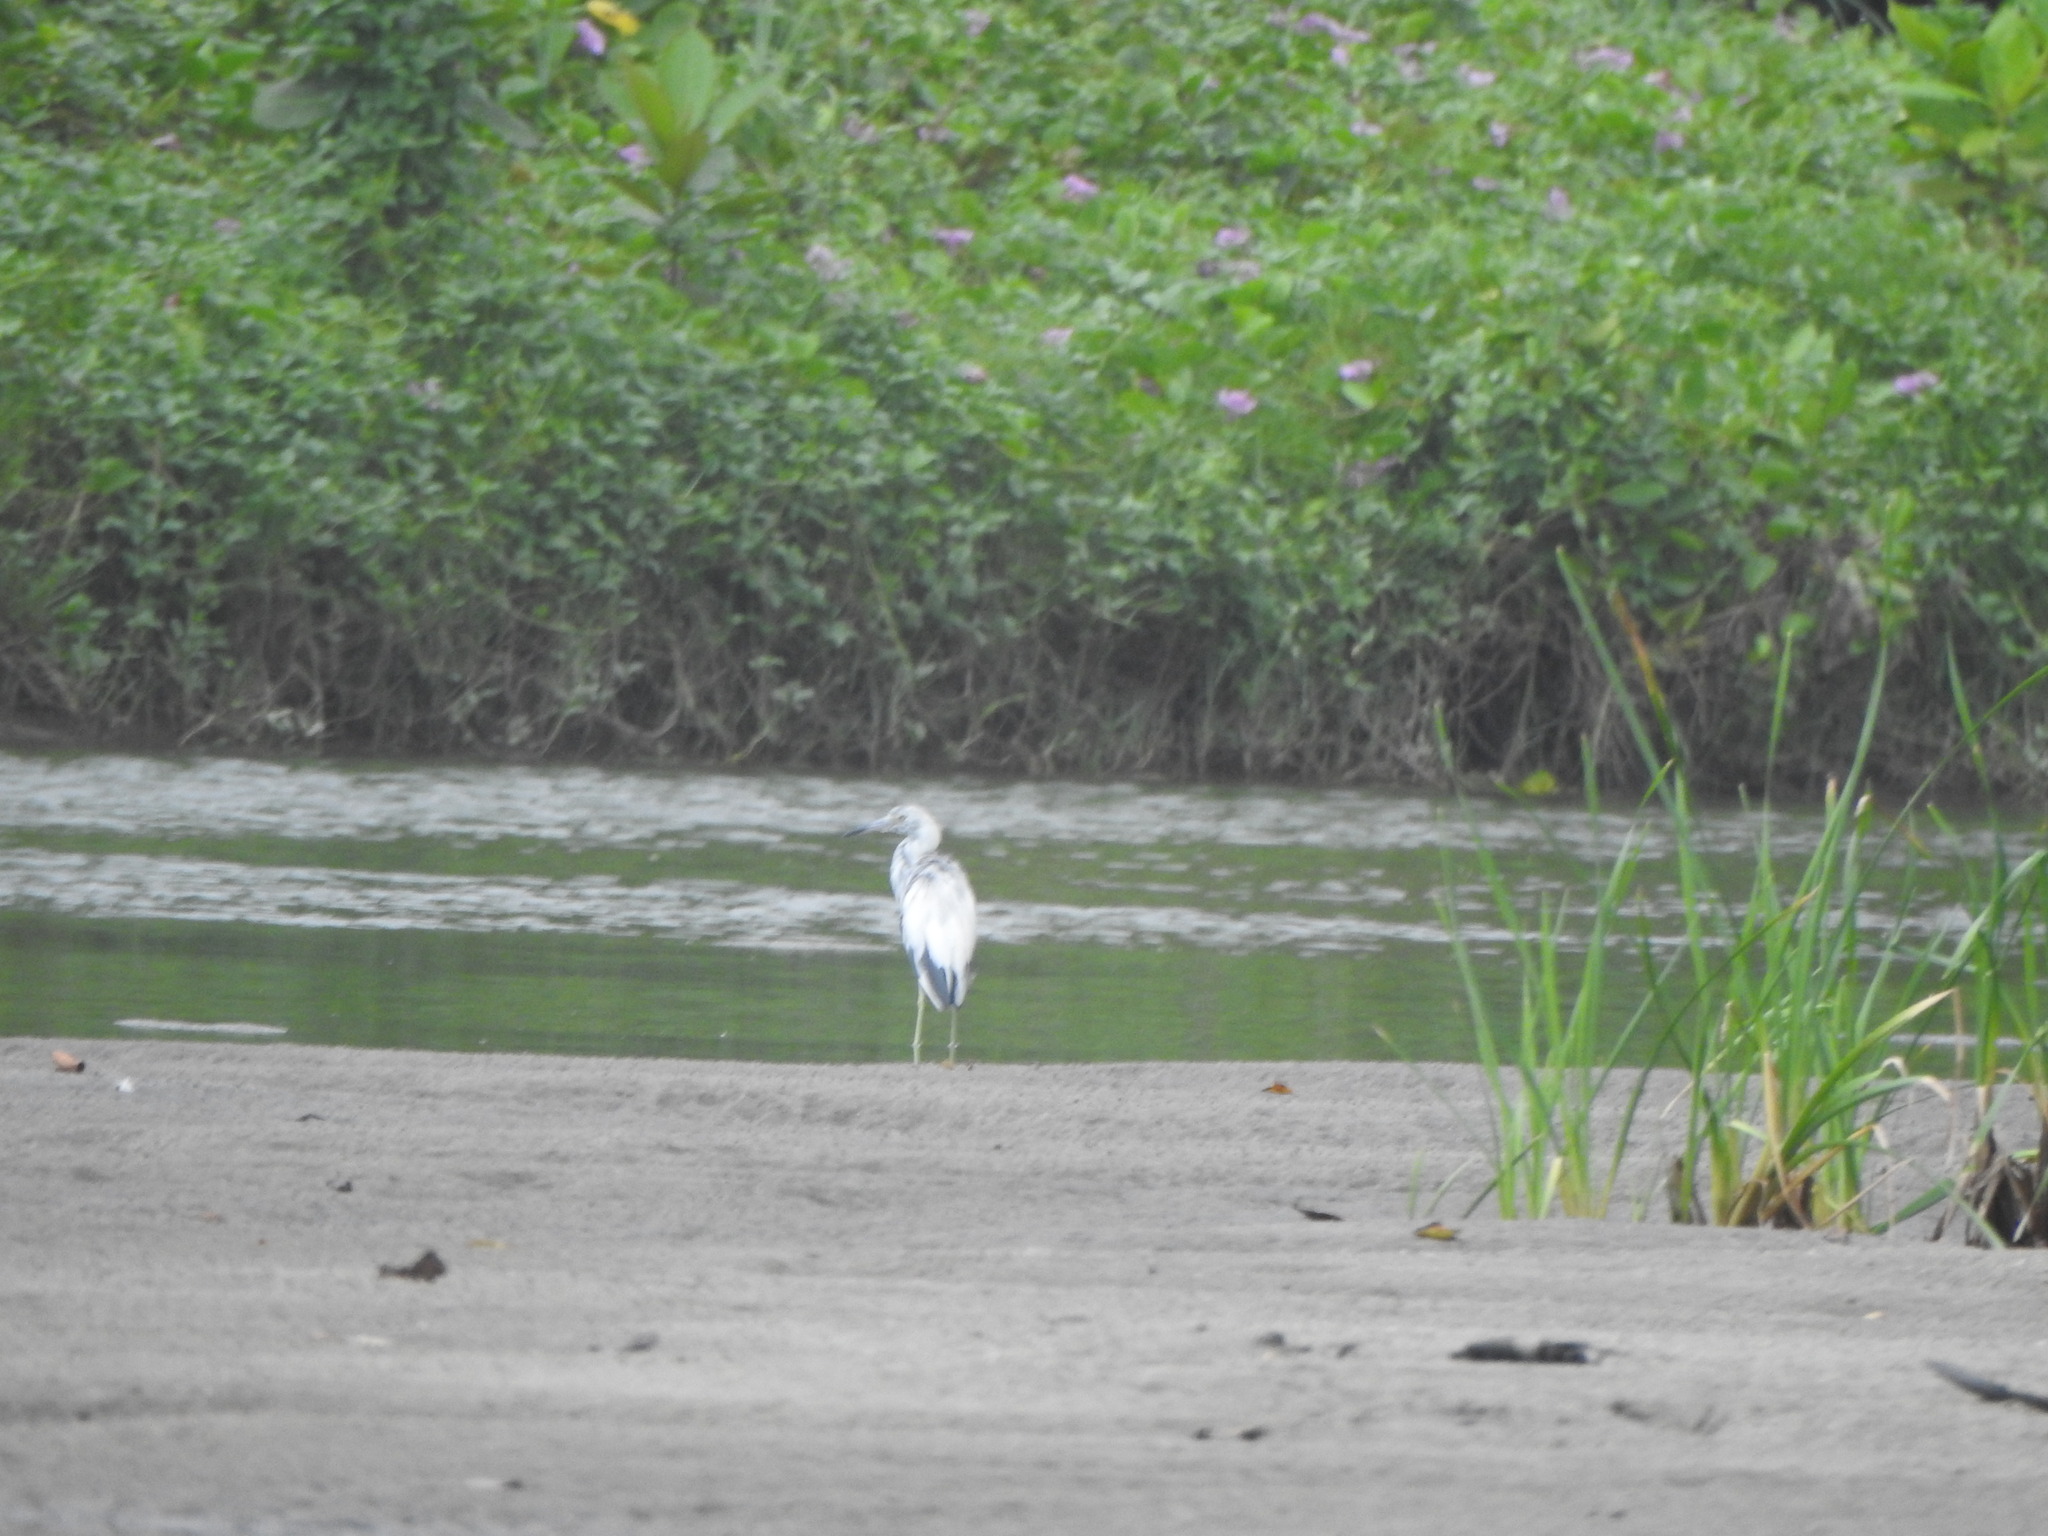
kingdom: Animalia
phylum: Chordata
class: Aves
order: Pelecaniformes
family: Ardeidae
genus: Egretta
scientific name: Egretta caerulea
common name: Little blue heron
